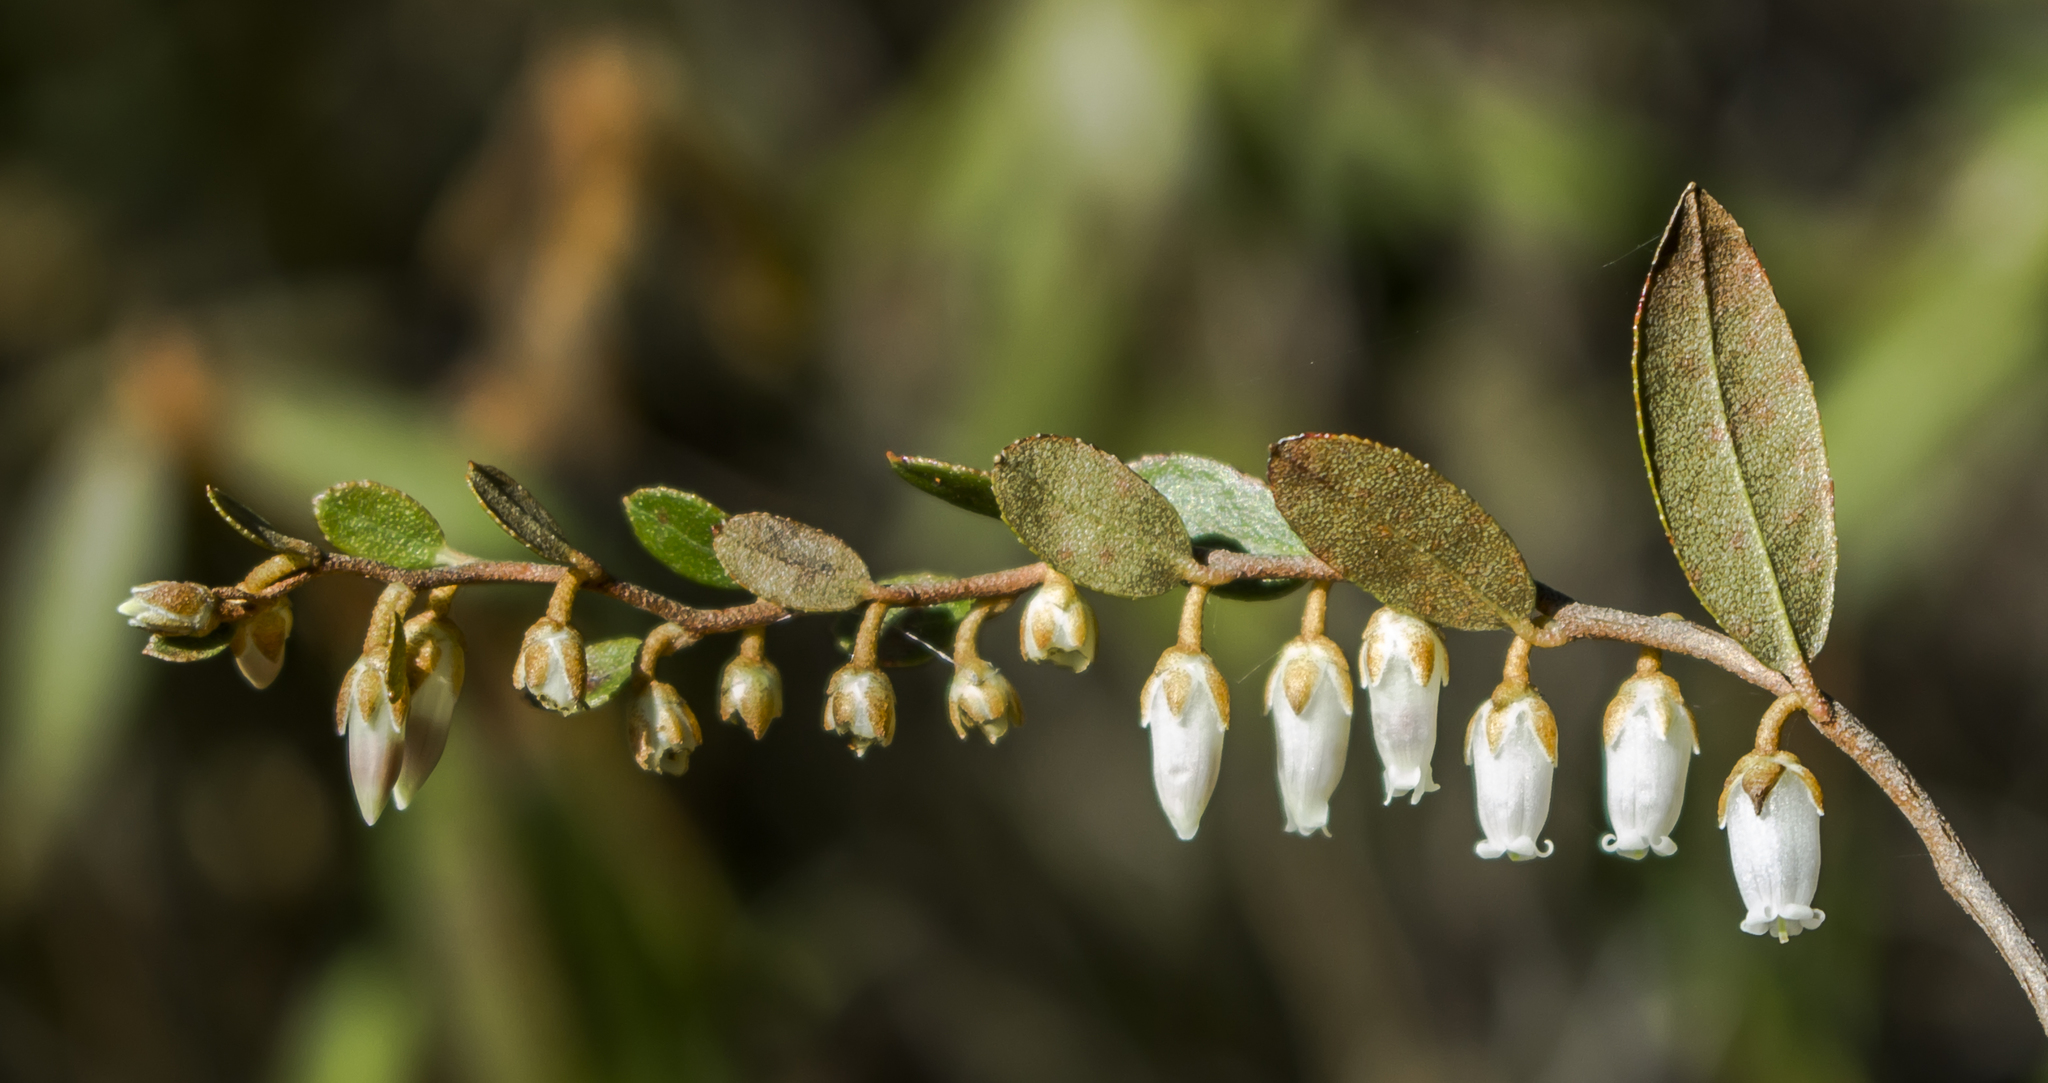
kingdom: Plantae
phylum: Tracheophyta
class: Magnoliopsida
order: Ericales
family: Ericaceae
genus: Chamaedaphne
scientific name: Chamaedaphne calyculata
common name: Leatherleaf
